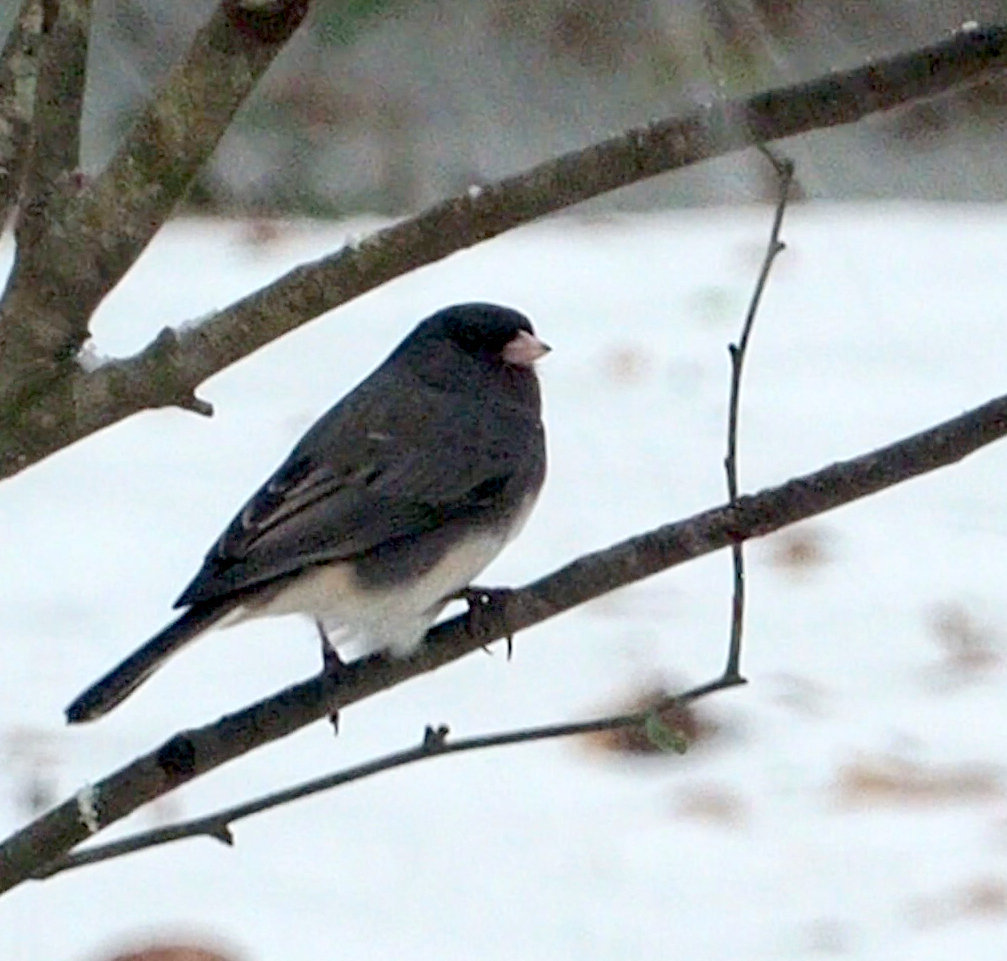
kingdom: Animalia
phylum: Chordata
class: Aves
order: Passeriformes
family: Passerellidae
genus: Junco
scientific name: Junco hyemalis
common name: Dark-eyed junco
